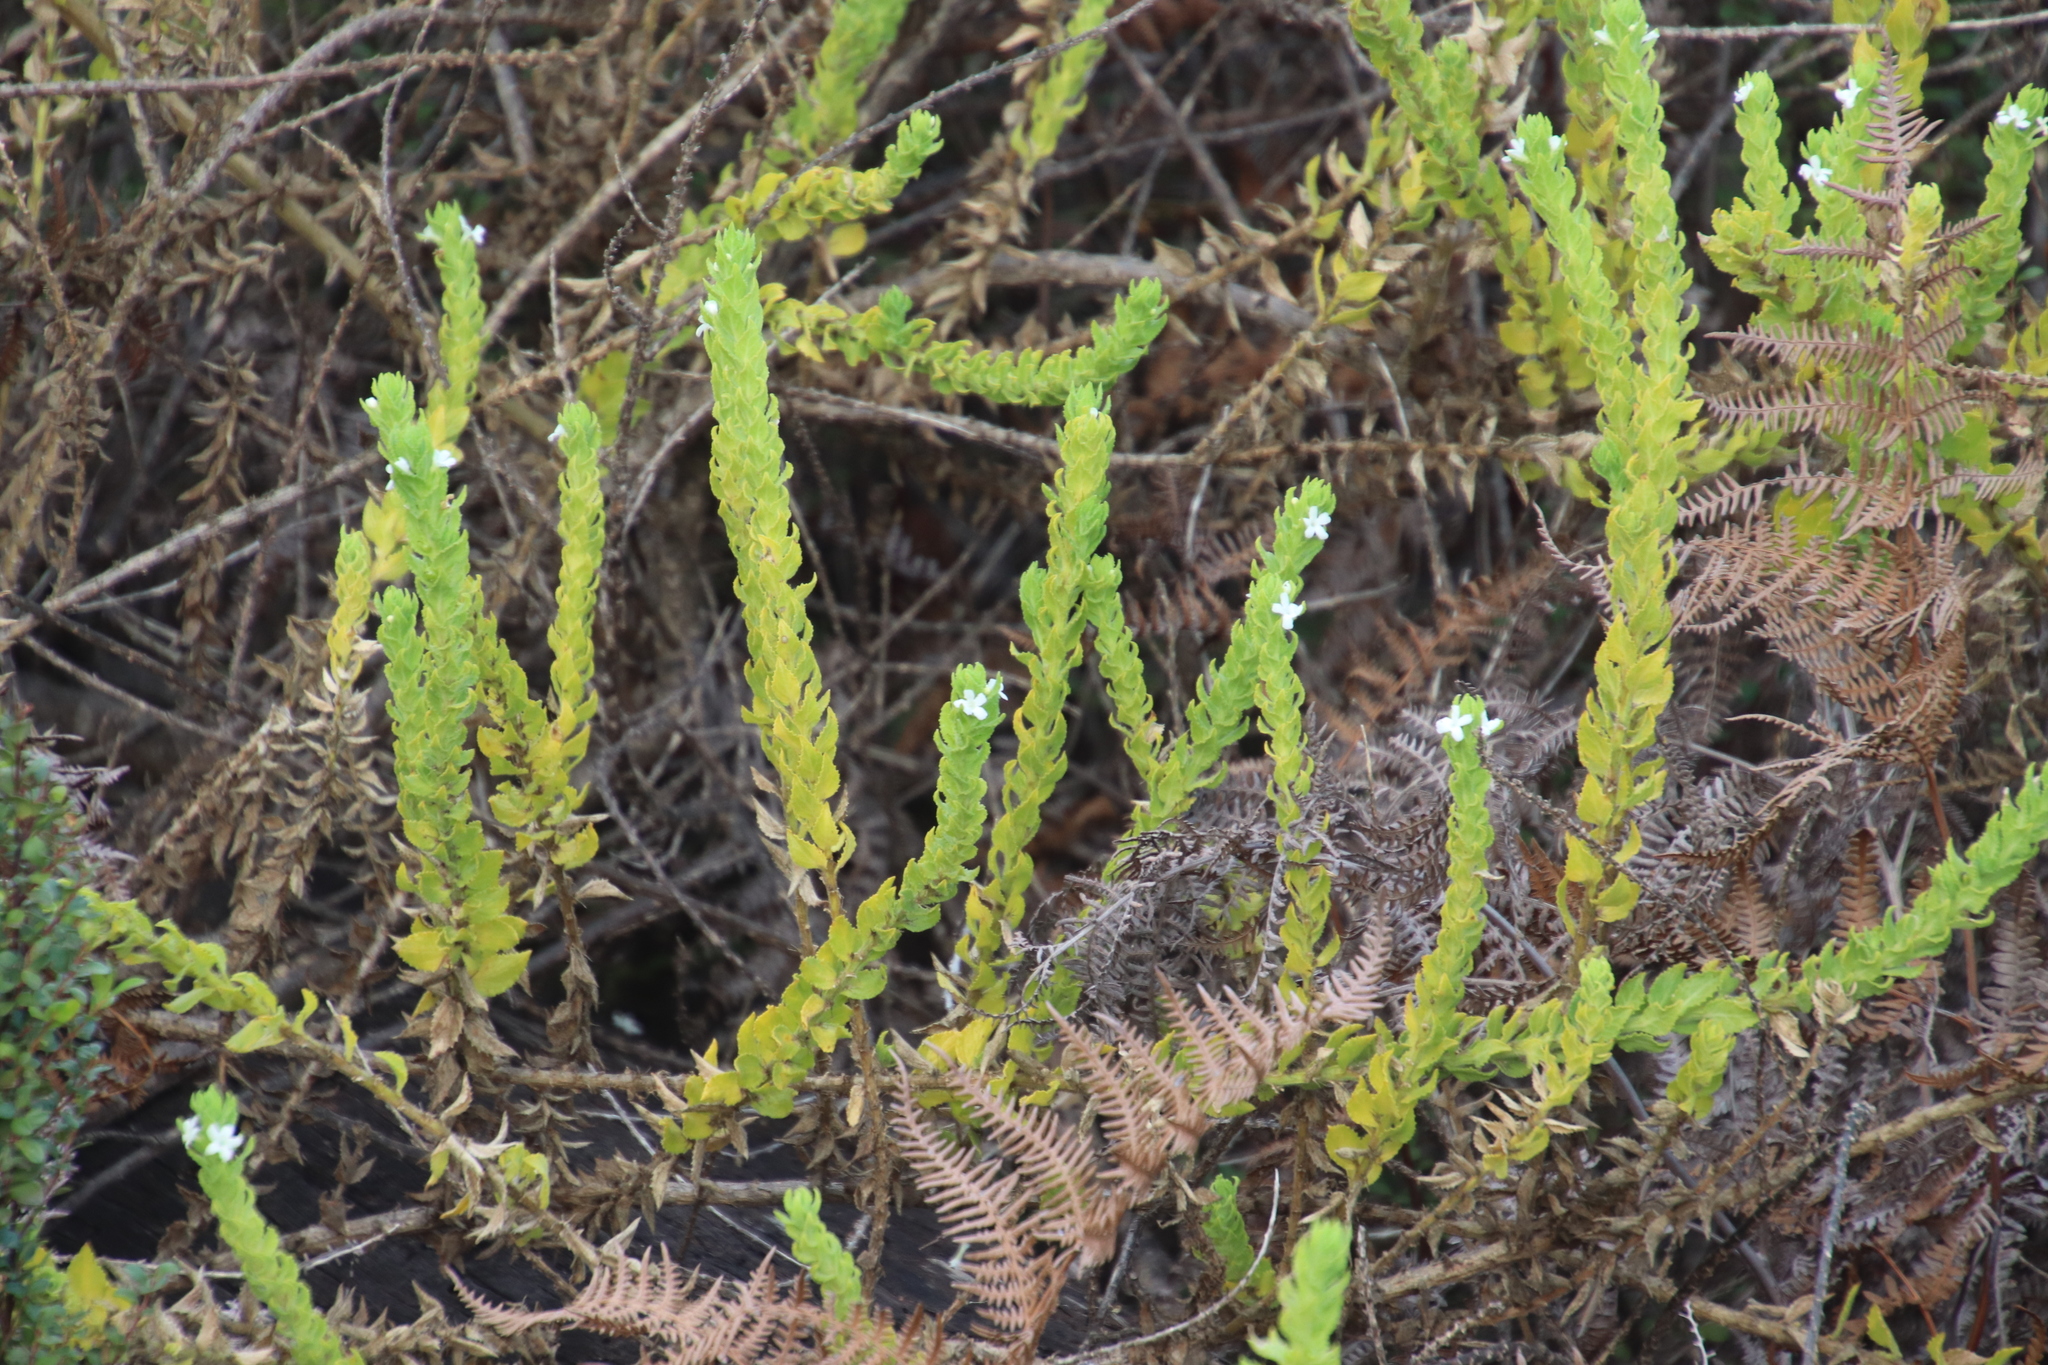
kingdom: Plantae
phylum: Tracheophyta
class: Magnoliopsida
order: Lamiales
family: Scrophulariaceae
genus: Oftia
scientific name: Oftia africana
